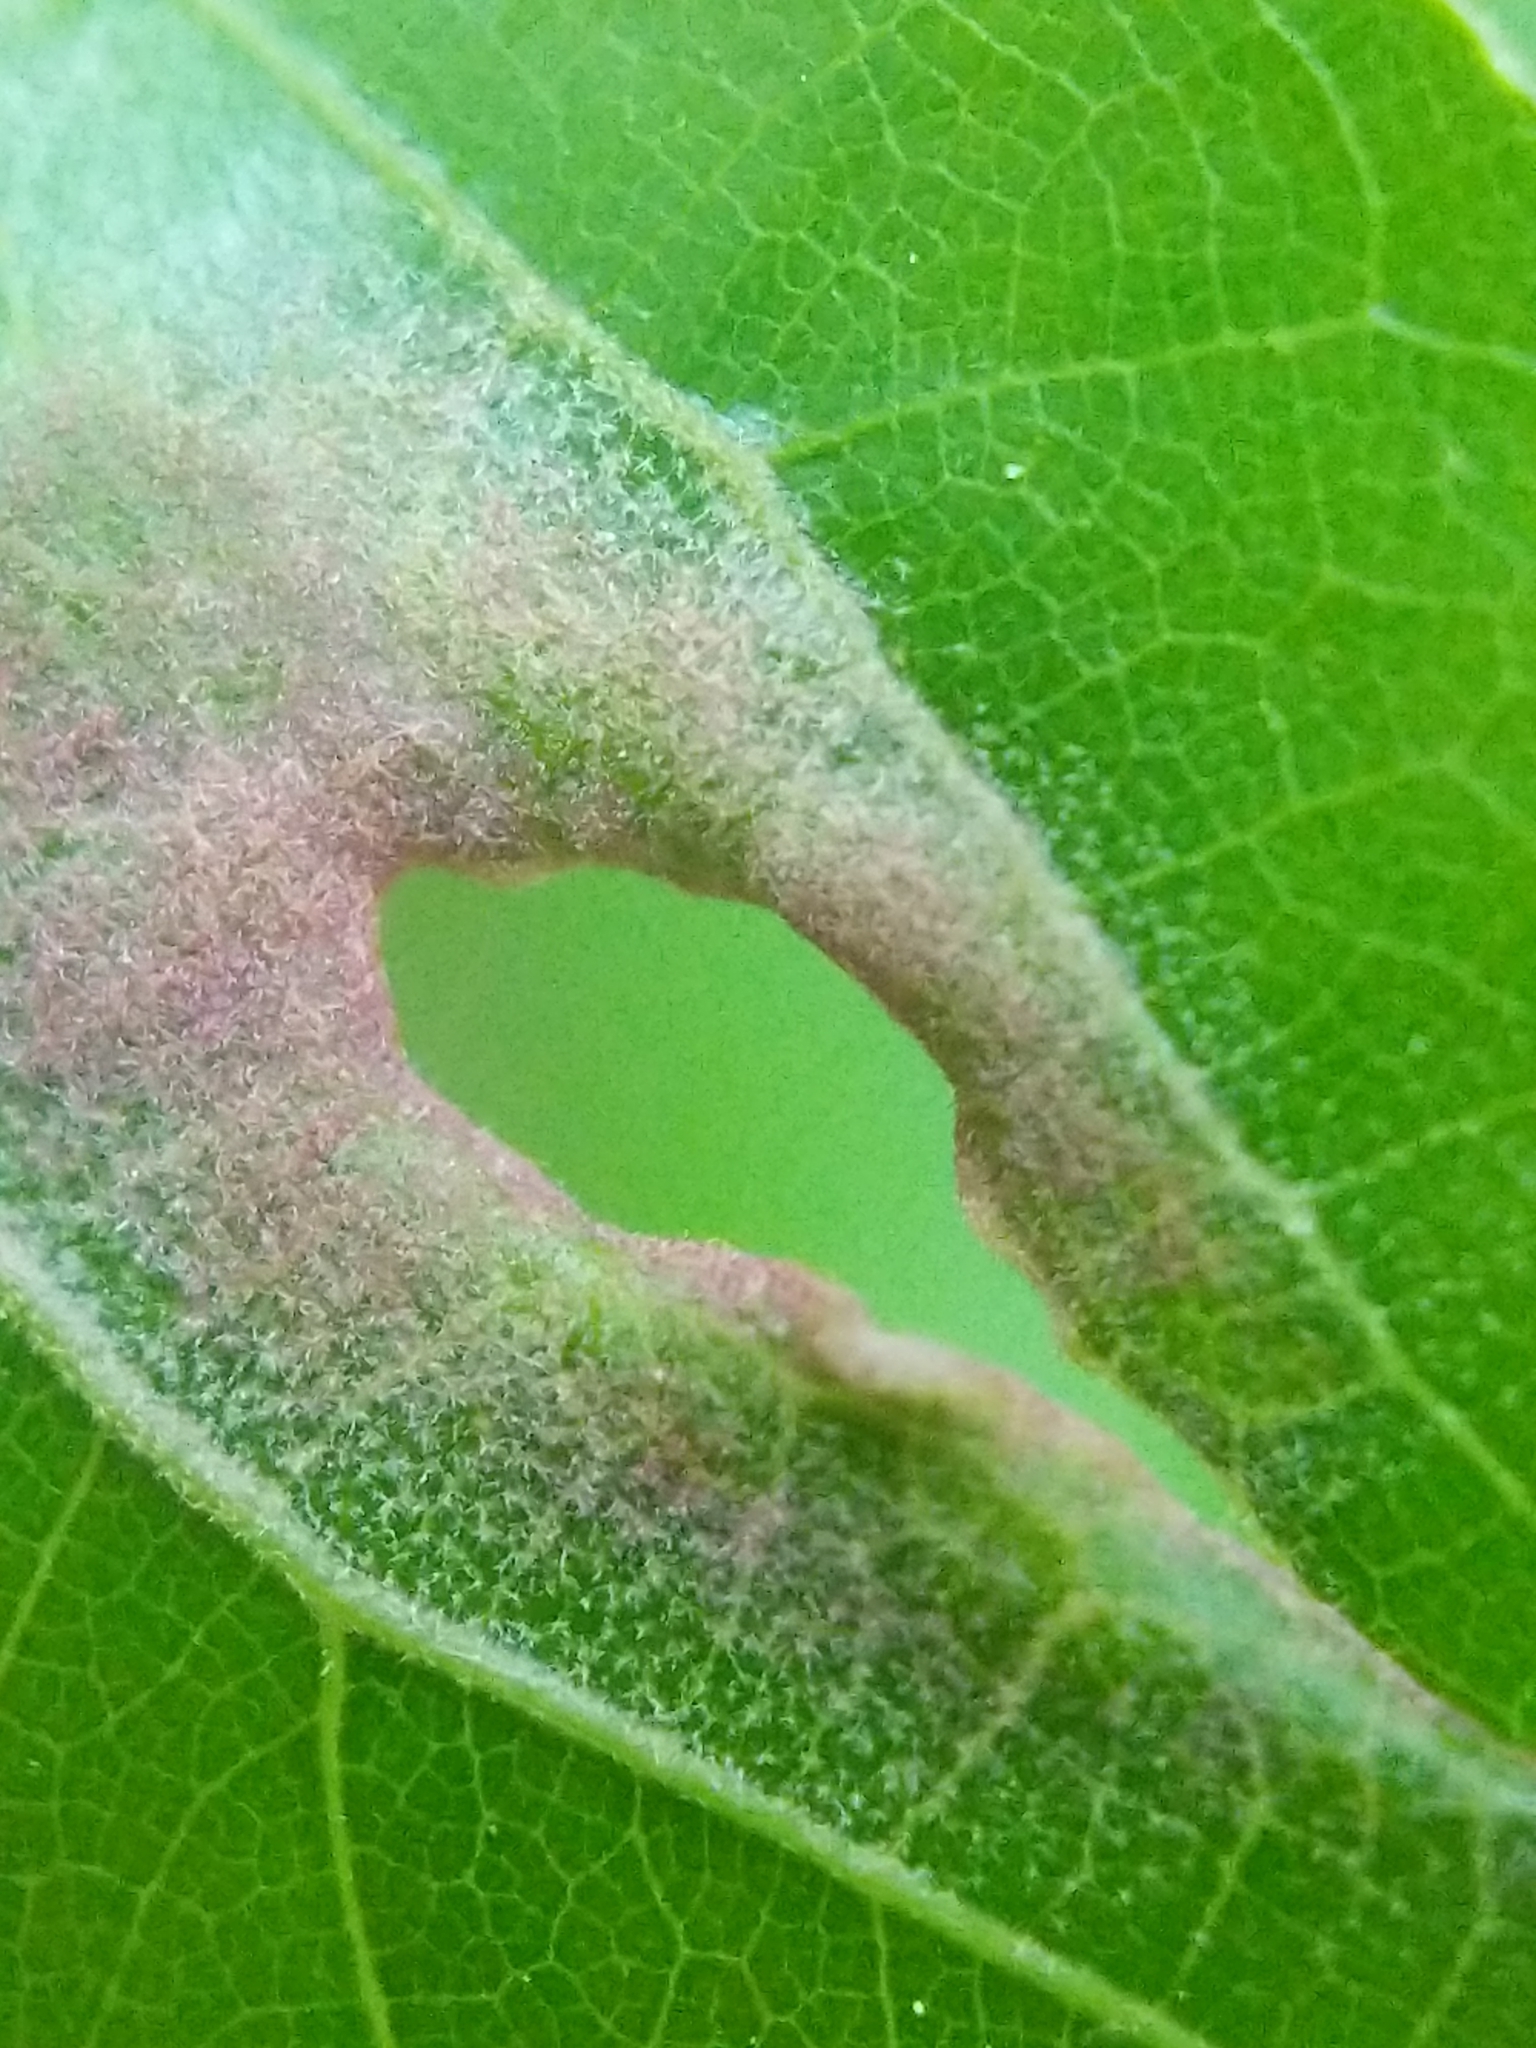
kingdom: Animalia
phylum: Arthropoda
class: Arachnida
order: Trombidiformes
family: Eriophyidae
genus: Aceria
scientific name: Aceria
